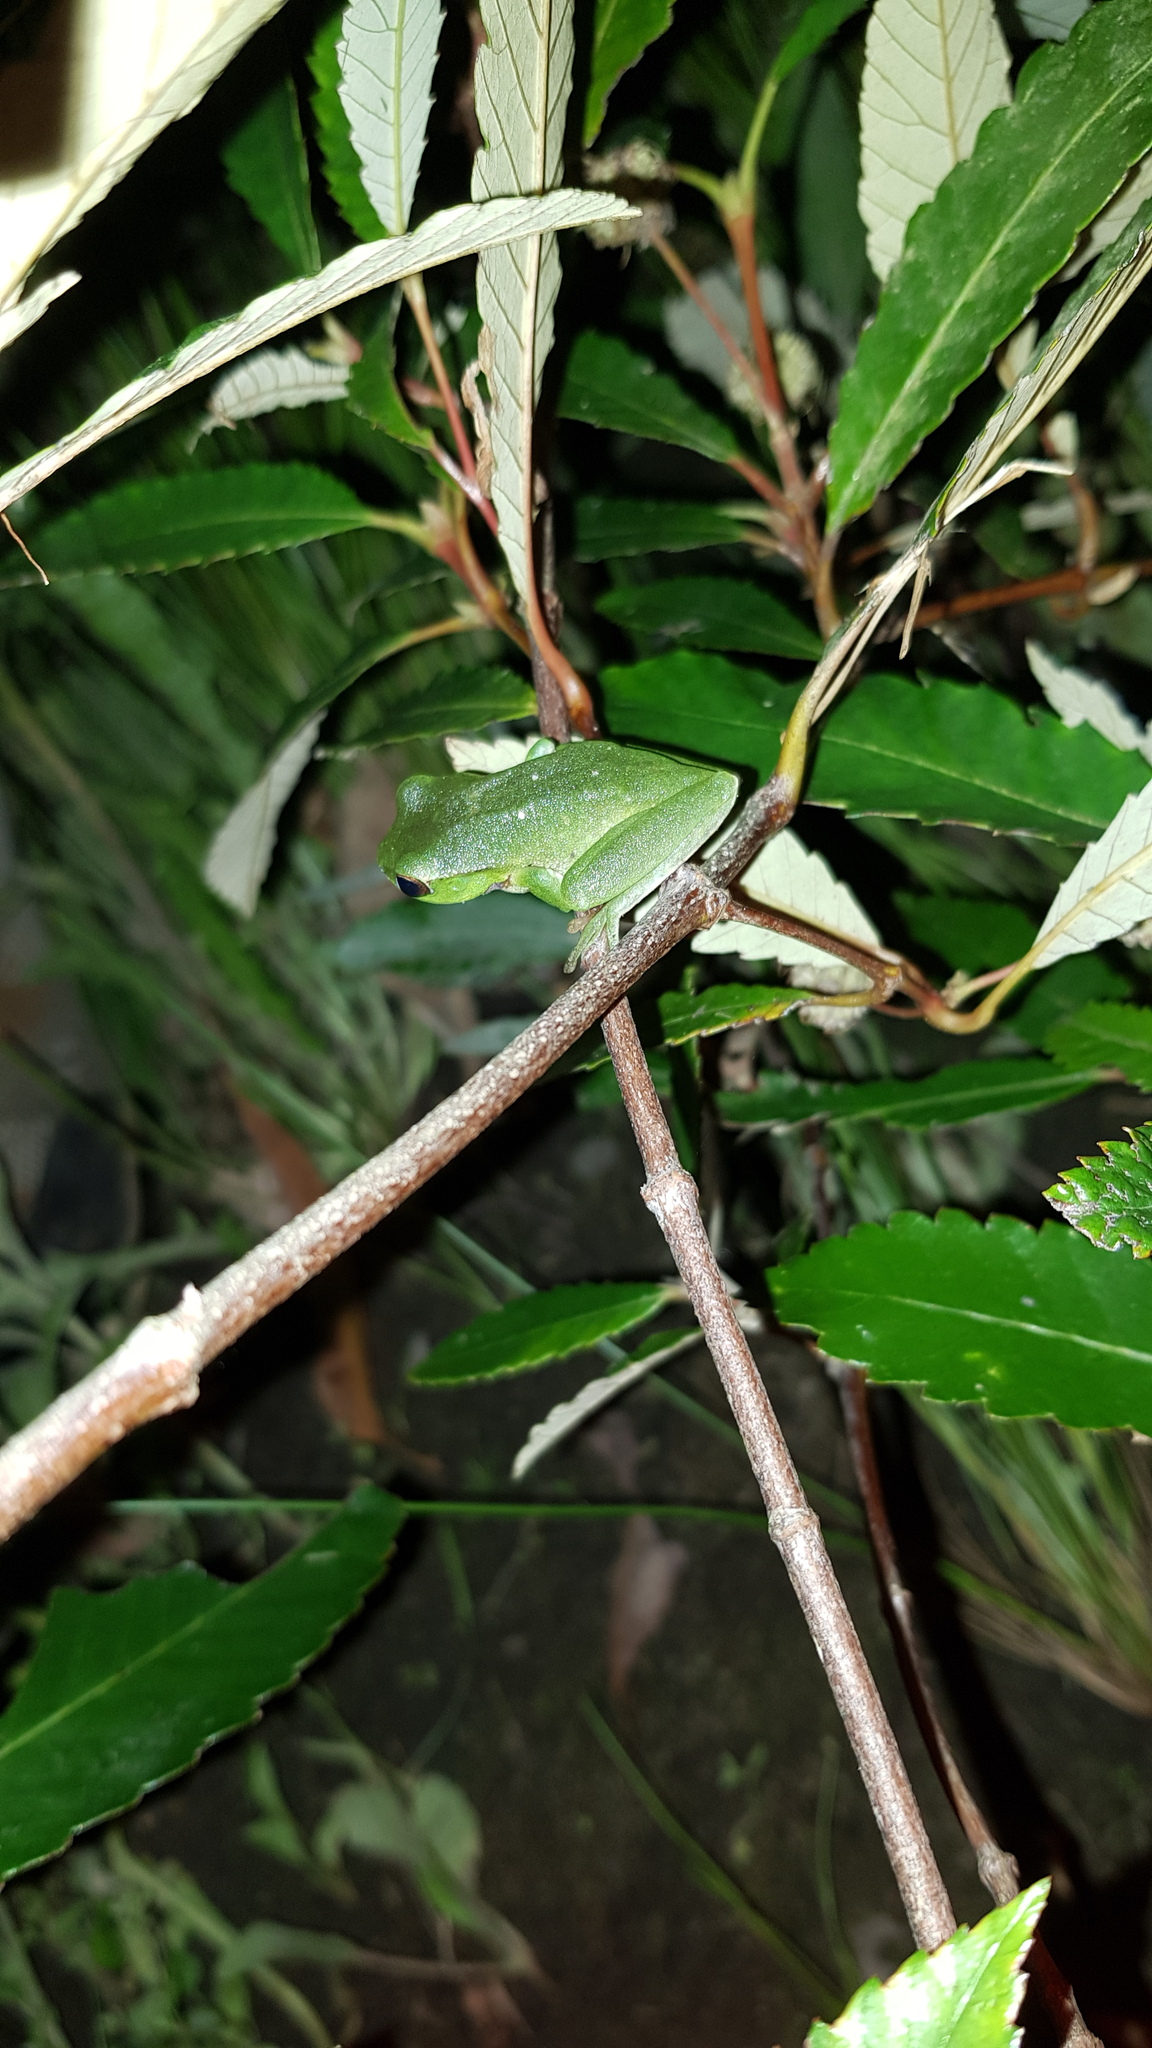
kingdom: Animalia
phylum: Chordata
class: Amphibia
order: Anura
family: Pelodryadidae
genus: Ranoidea
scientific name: Ranoidea phyllochroa
